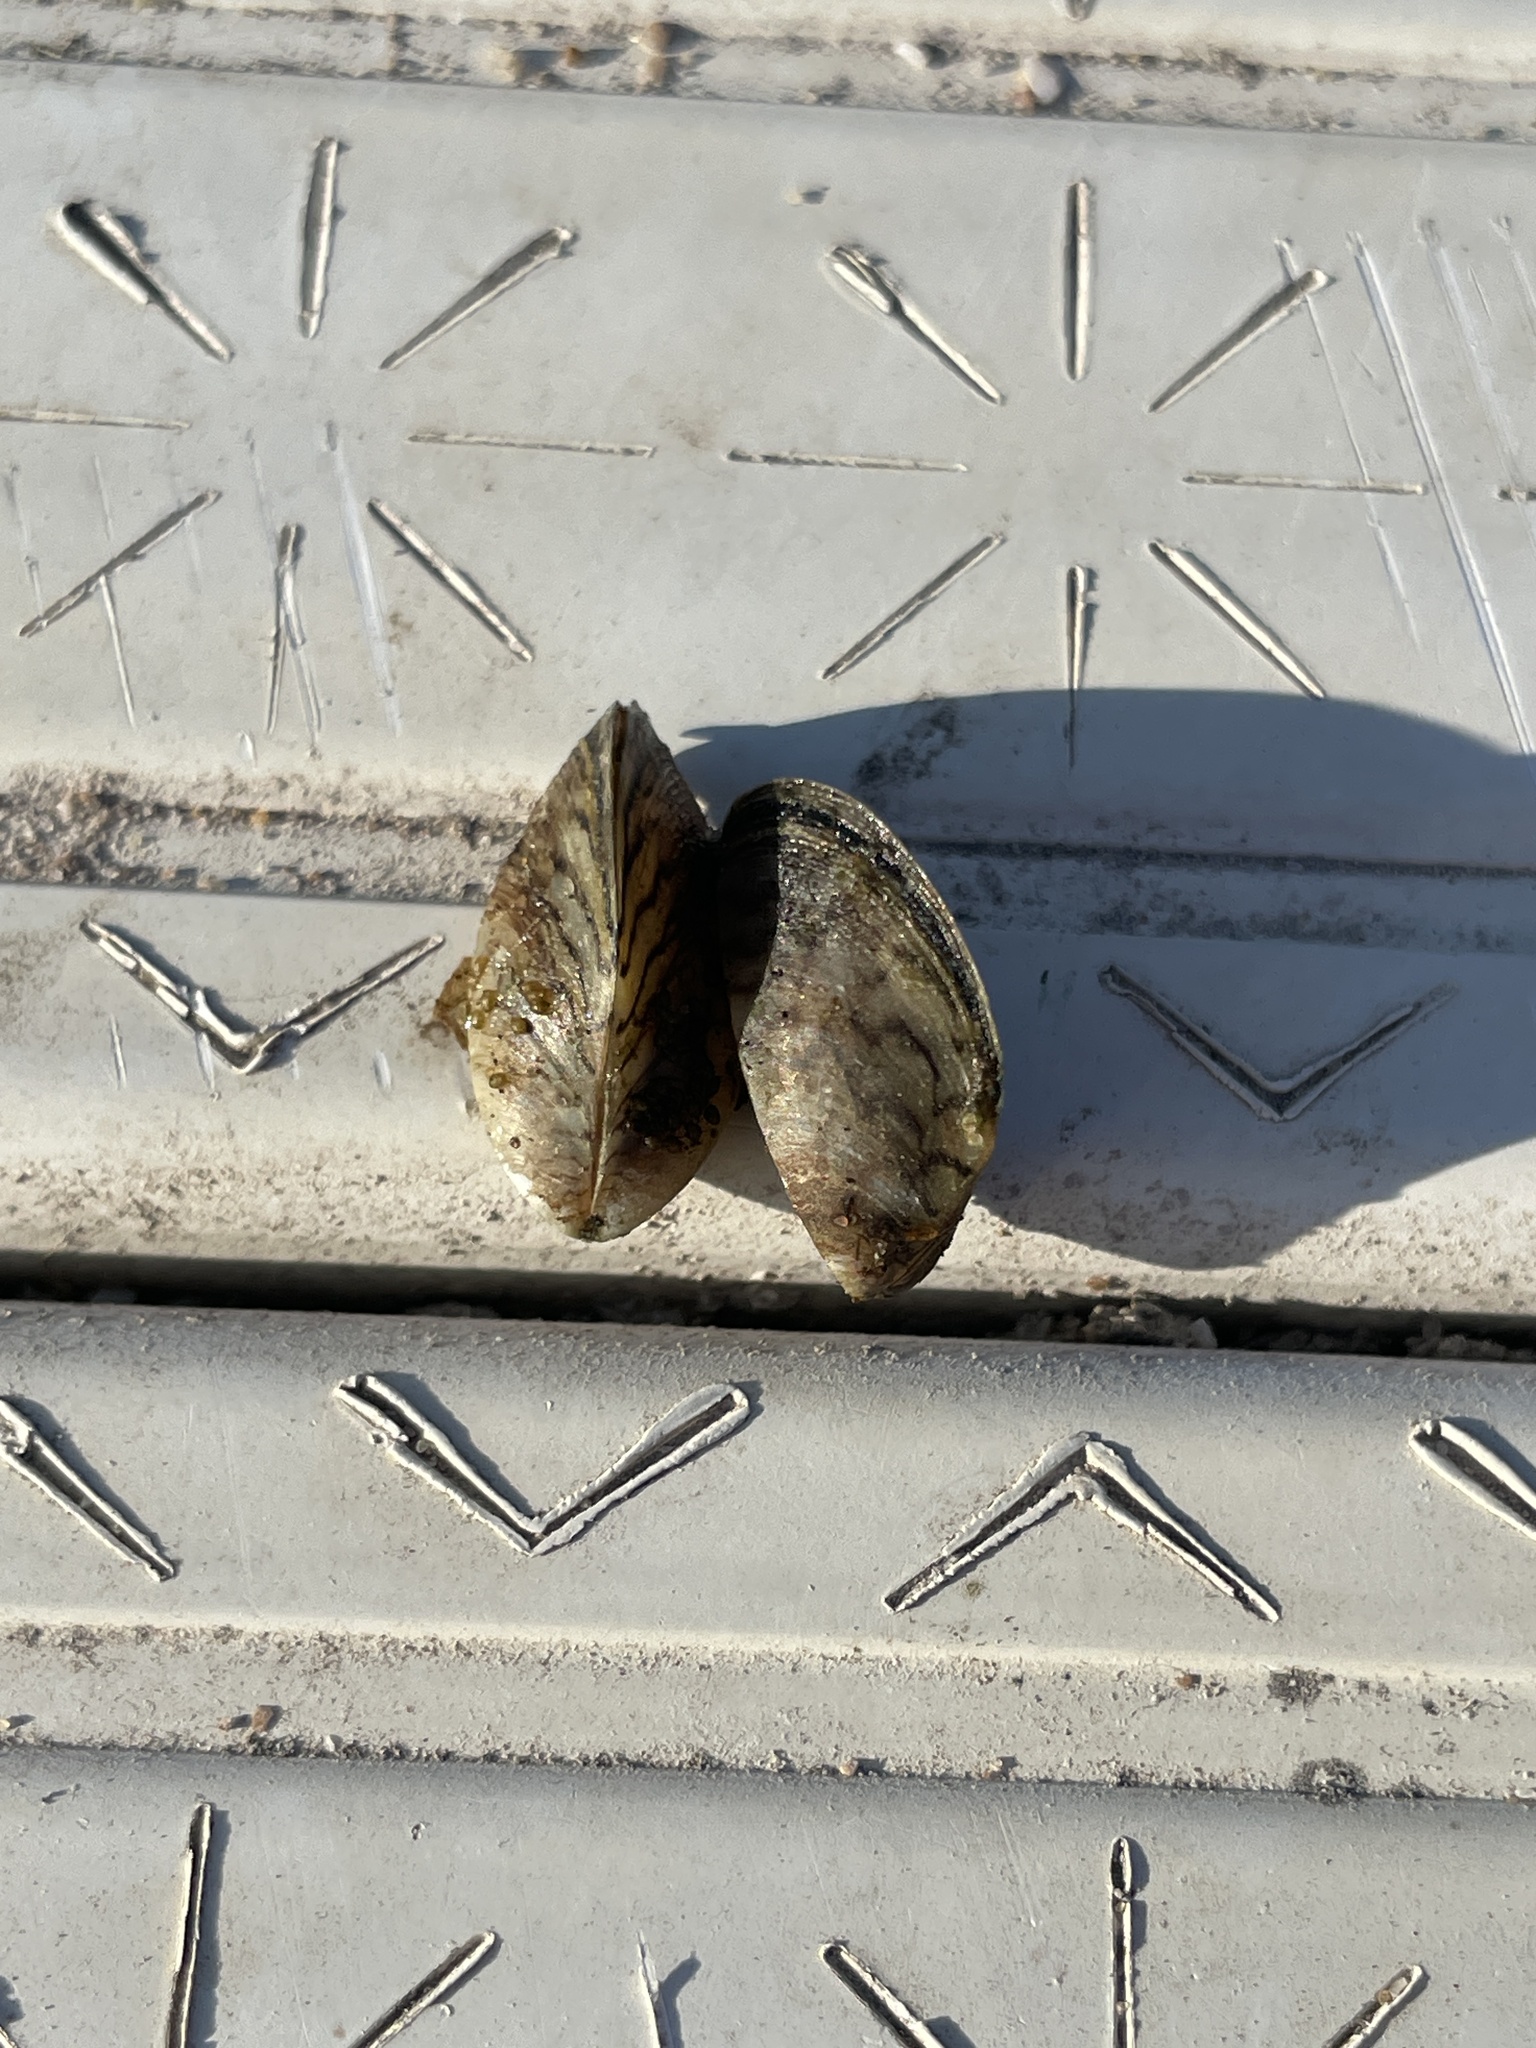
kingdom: Animalia
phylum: Mollusca
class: Bivalvia
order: Myida
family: Dreissenidae
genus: Dreissena
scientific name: Dreissena polymorpha
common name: Zebra mussel
